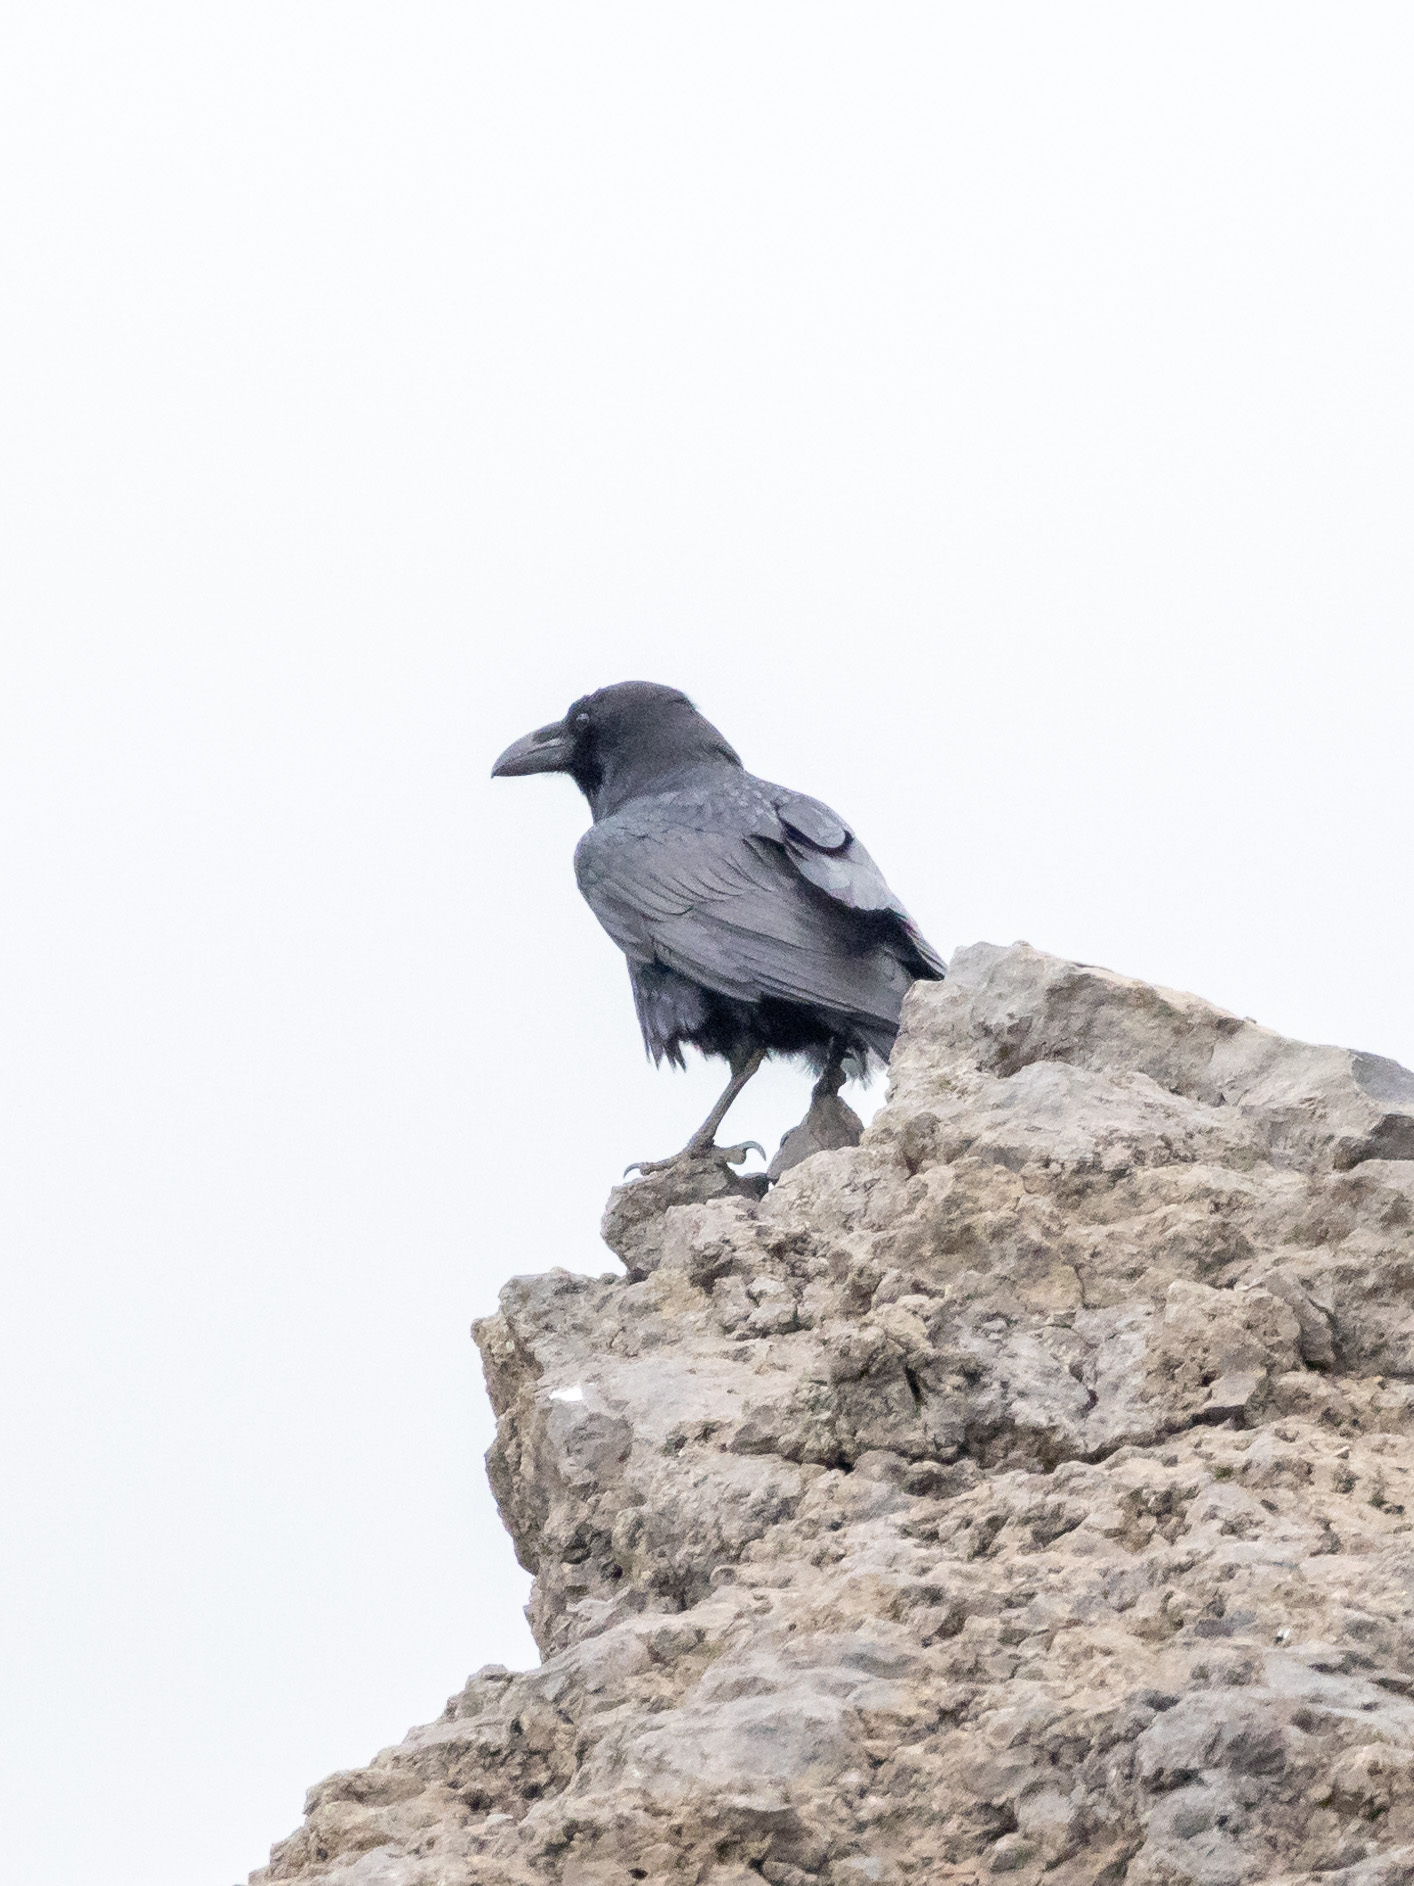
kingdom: Animalia
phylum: Chordata
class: Aves
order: Passeriformes
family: Corvidae
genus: Corvus
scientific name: Corvus corax
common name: Common raven
